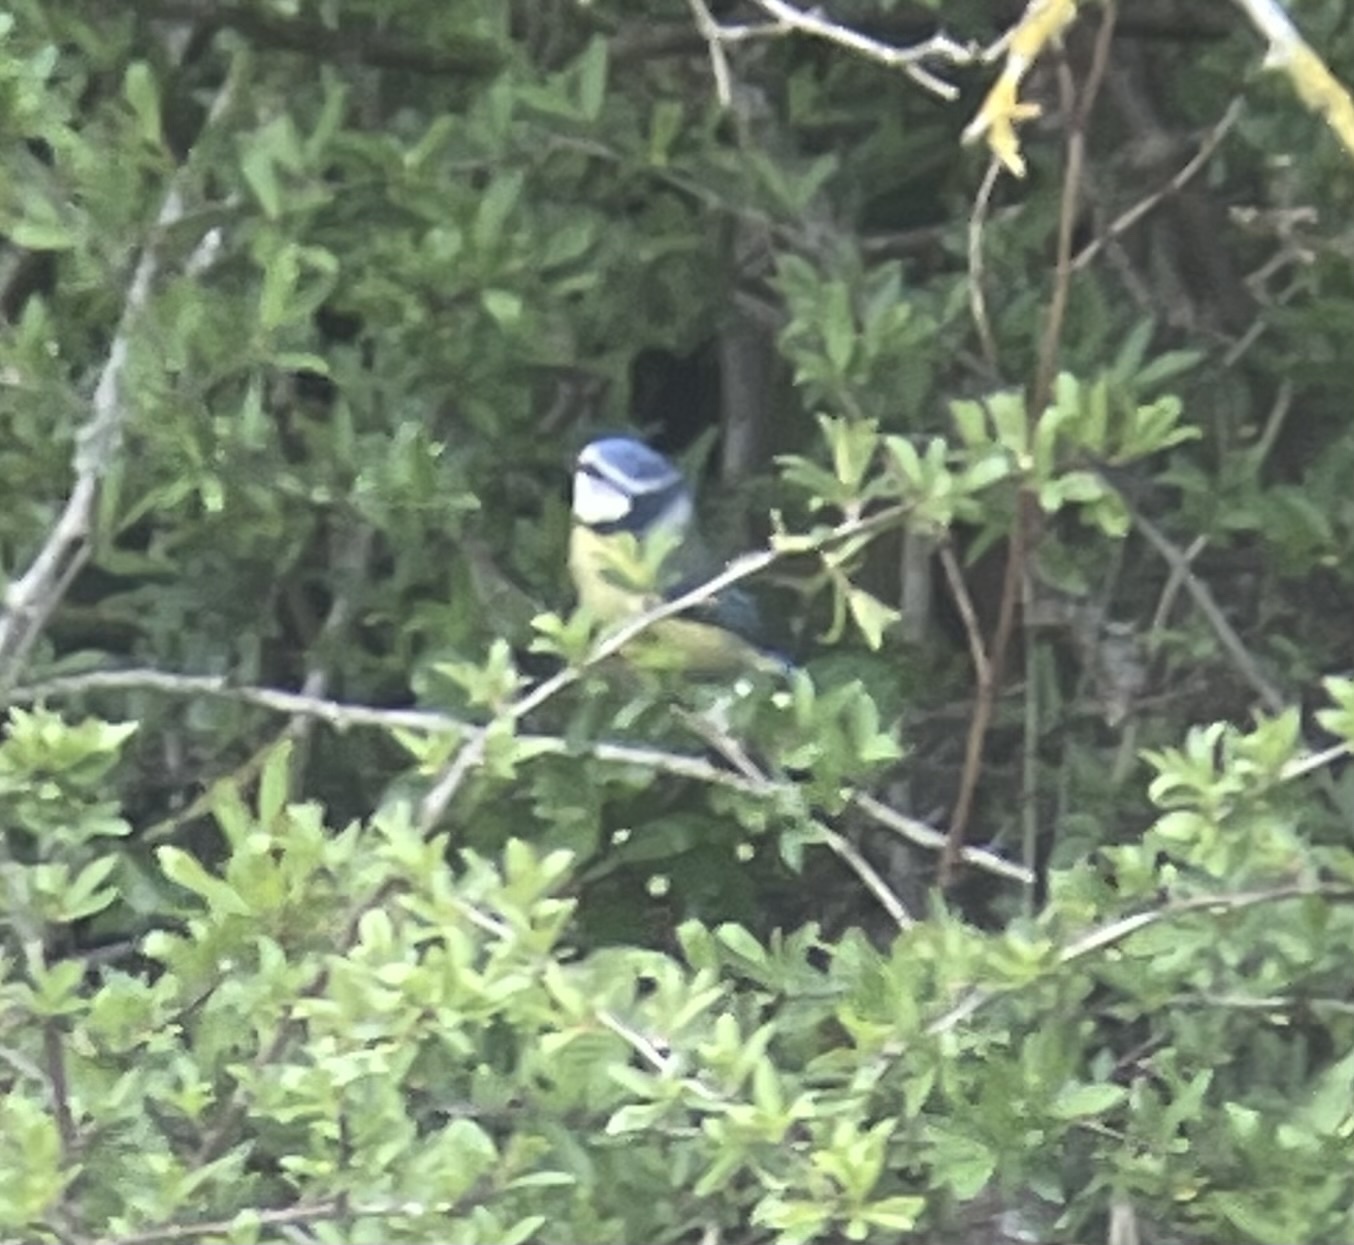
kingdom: Animalia
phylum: Chordata
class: Aves
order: Passeriformes
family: Paridae
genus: Cyanistes
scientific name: Cyanistes caeruleus
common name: Eurasian blue tit
